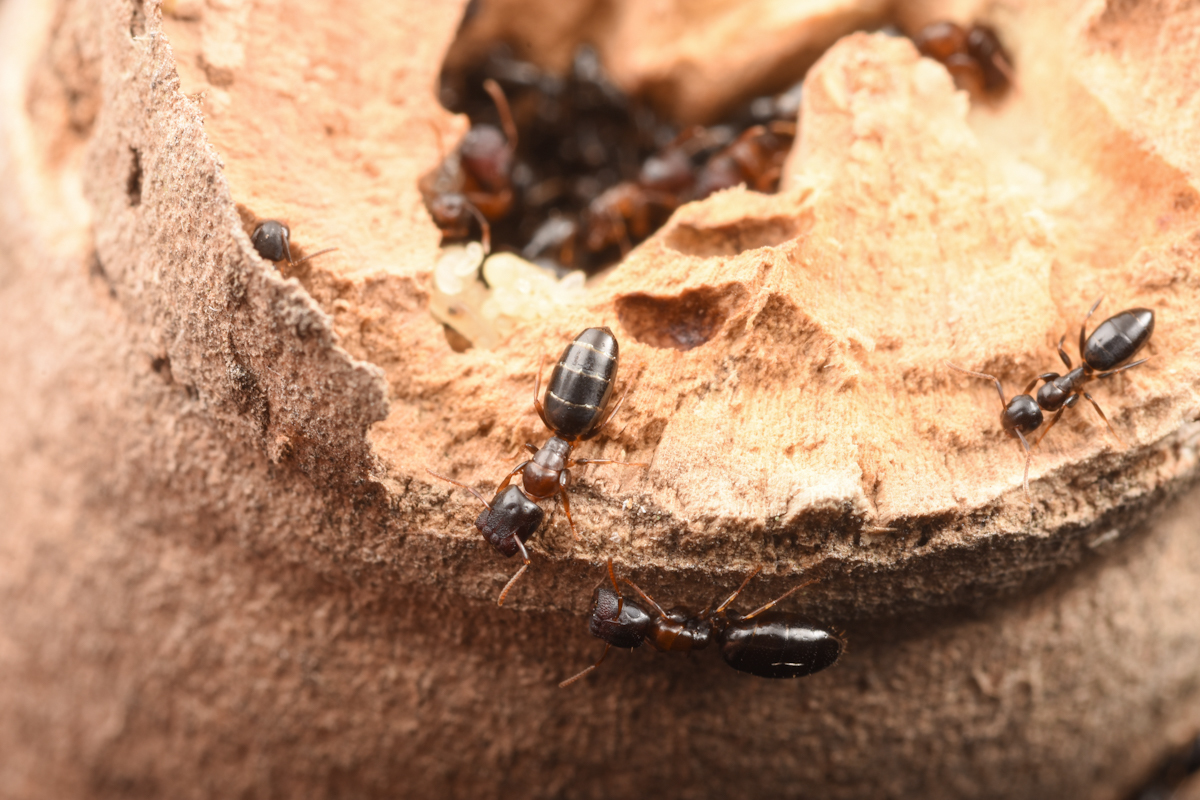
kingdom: Animalia
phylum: Arthropoda
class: Insecta
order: Hymenoptera
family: Formicidae
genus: Colobopsis
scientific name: Colobopsis
